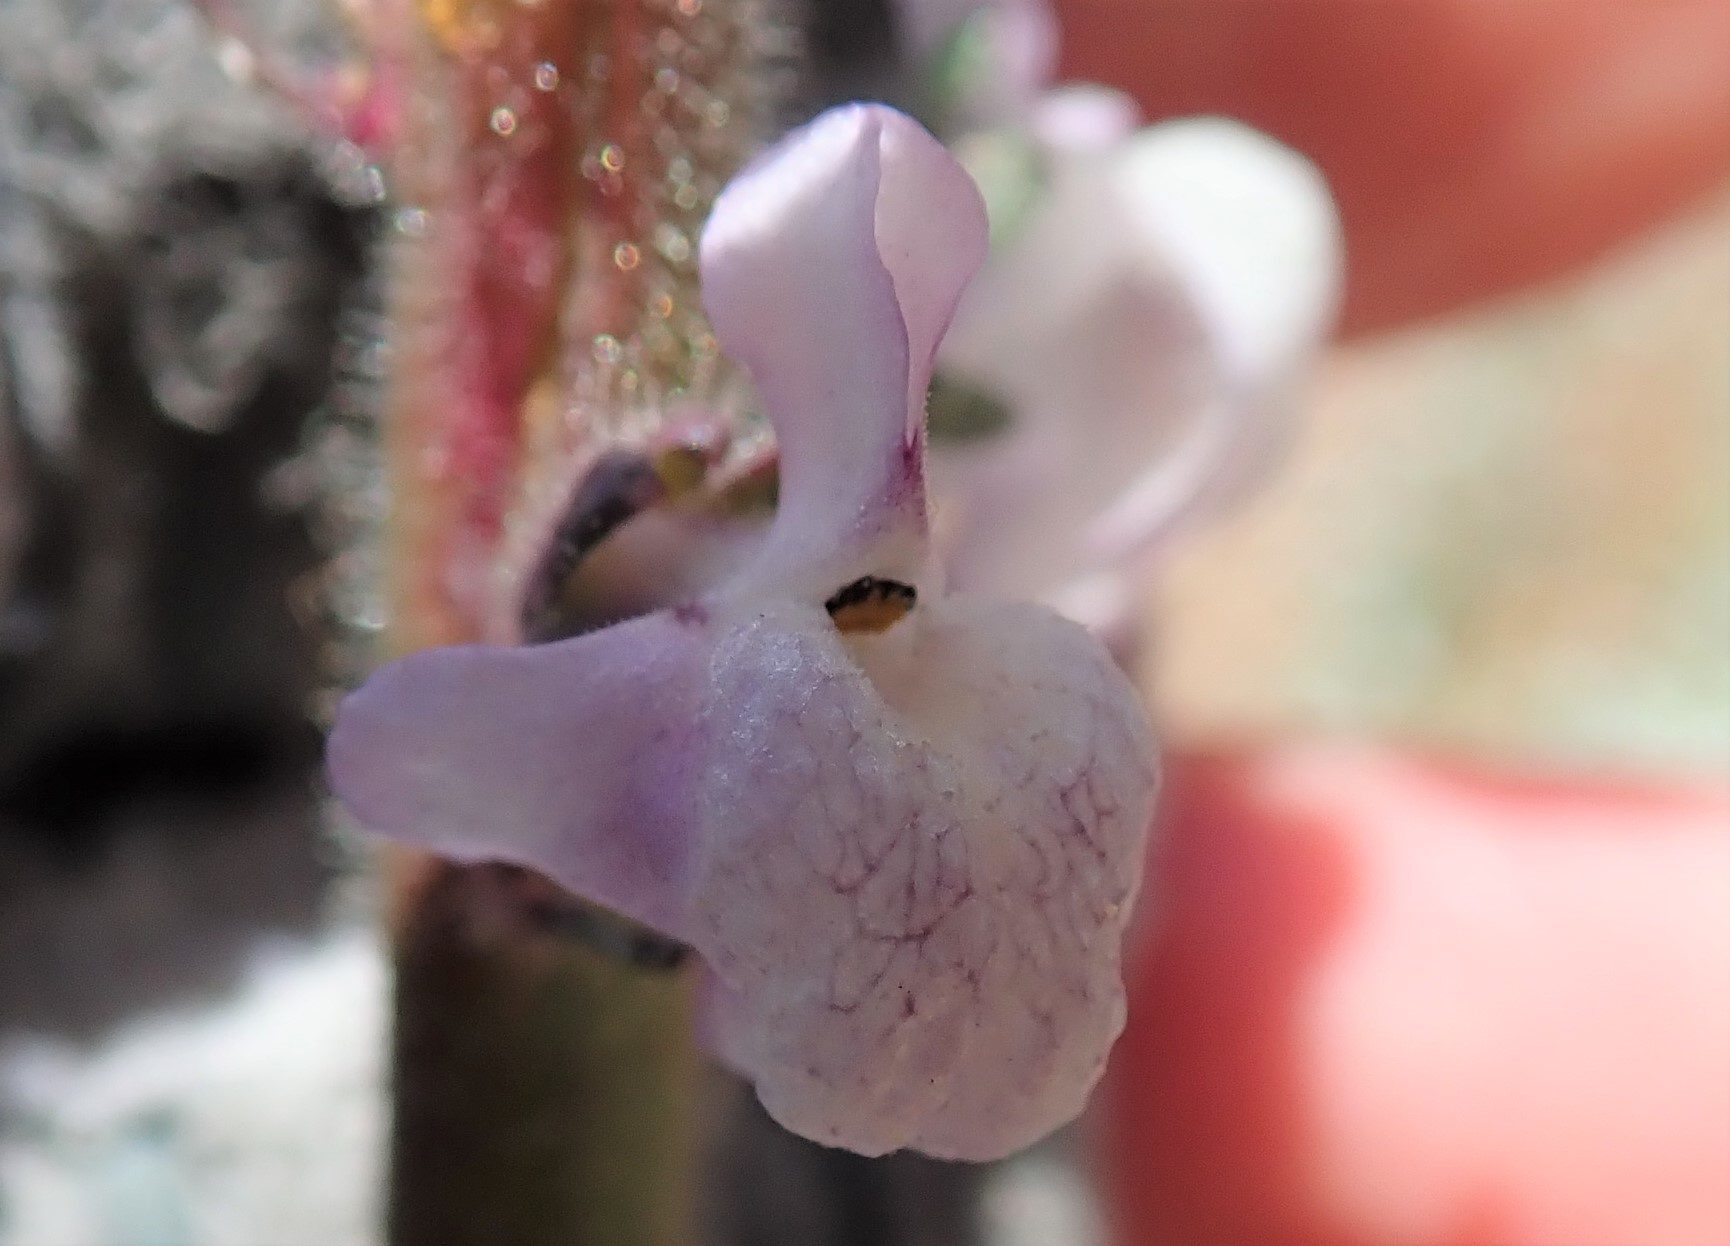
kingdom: Plantae
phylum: Tracheophyta
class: Magnoliopsida
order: Lamiales
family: Plantaginaceae
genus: Sairocarpus
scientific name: Sairocarpus coulterianus
